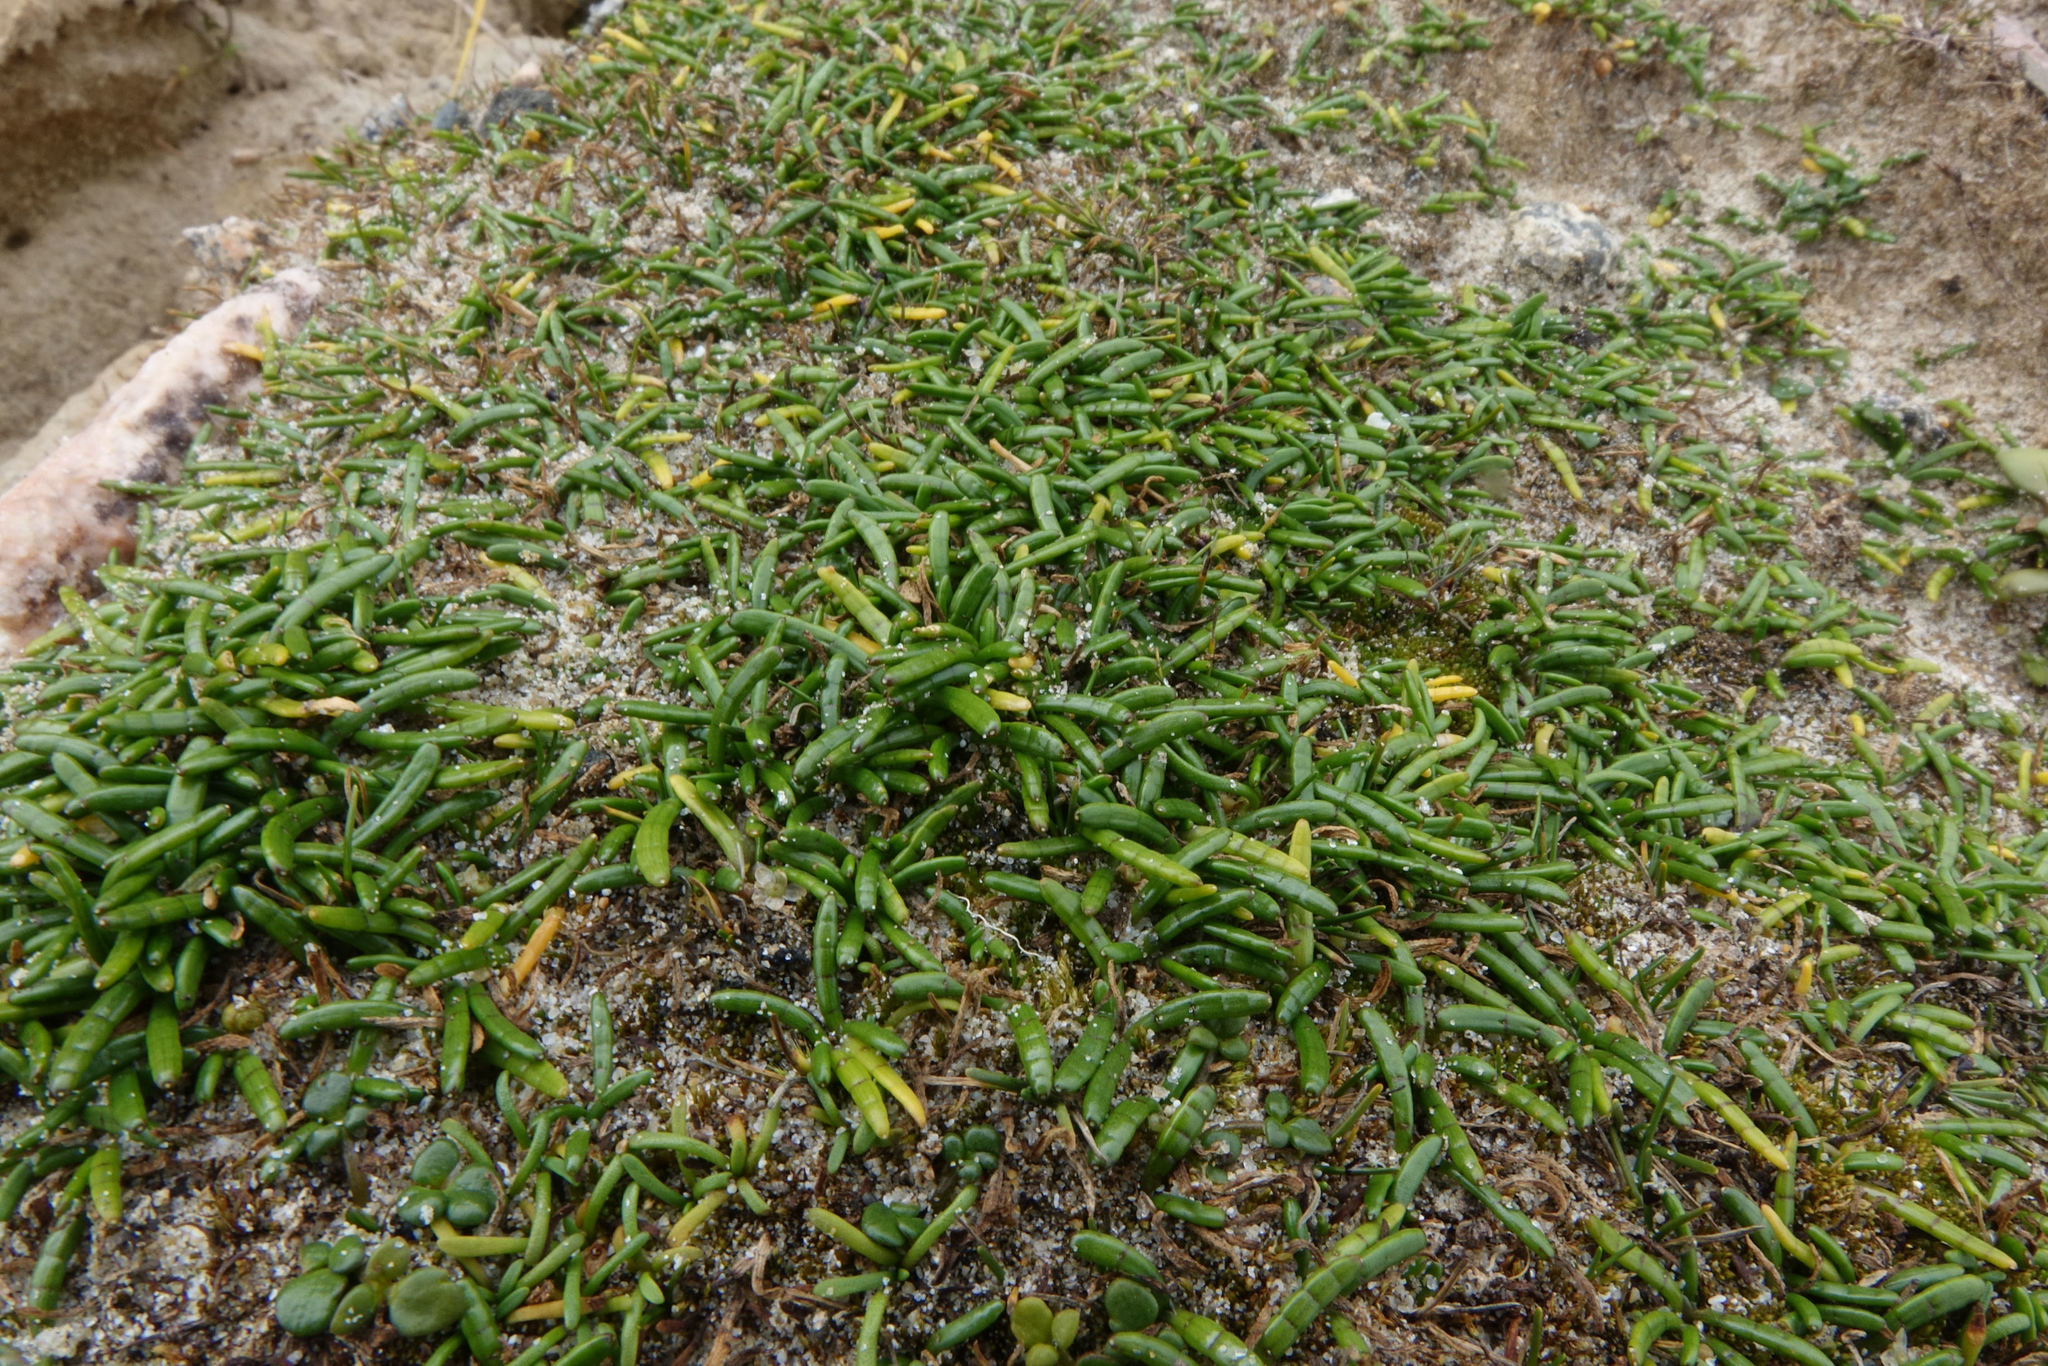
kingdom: Plantae
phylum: Tracheophyta
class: Magnoliopsida
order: Apiales
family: Apiaceae
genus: Lilaeopsis
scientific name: Lilaeopsis novae-zelandiae
